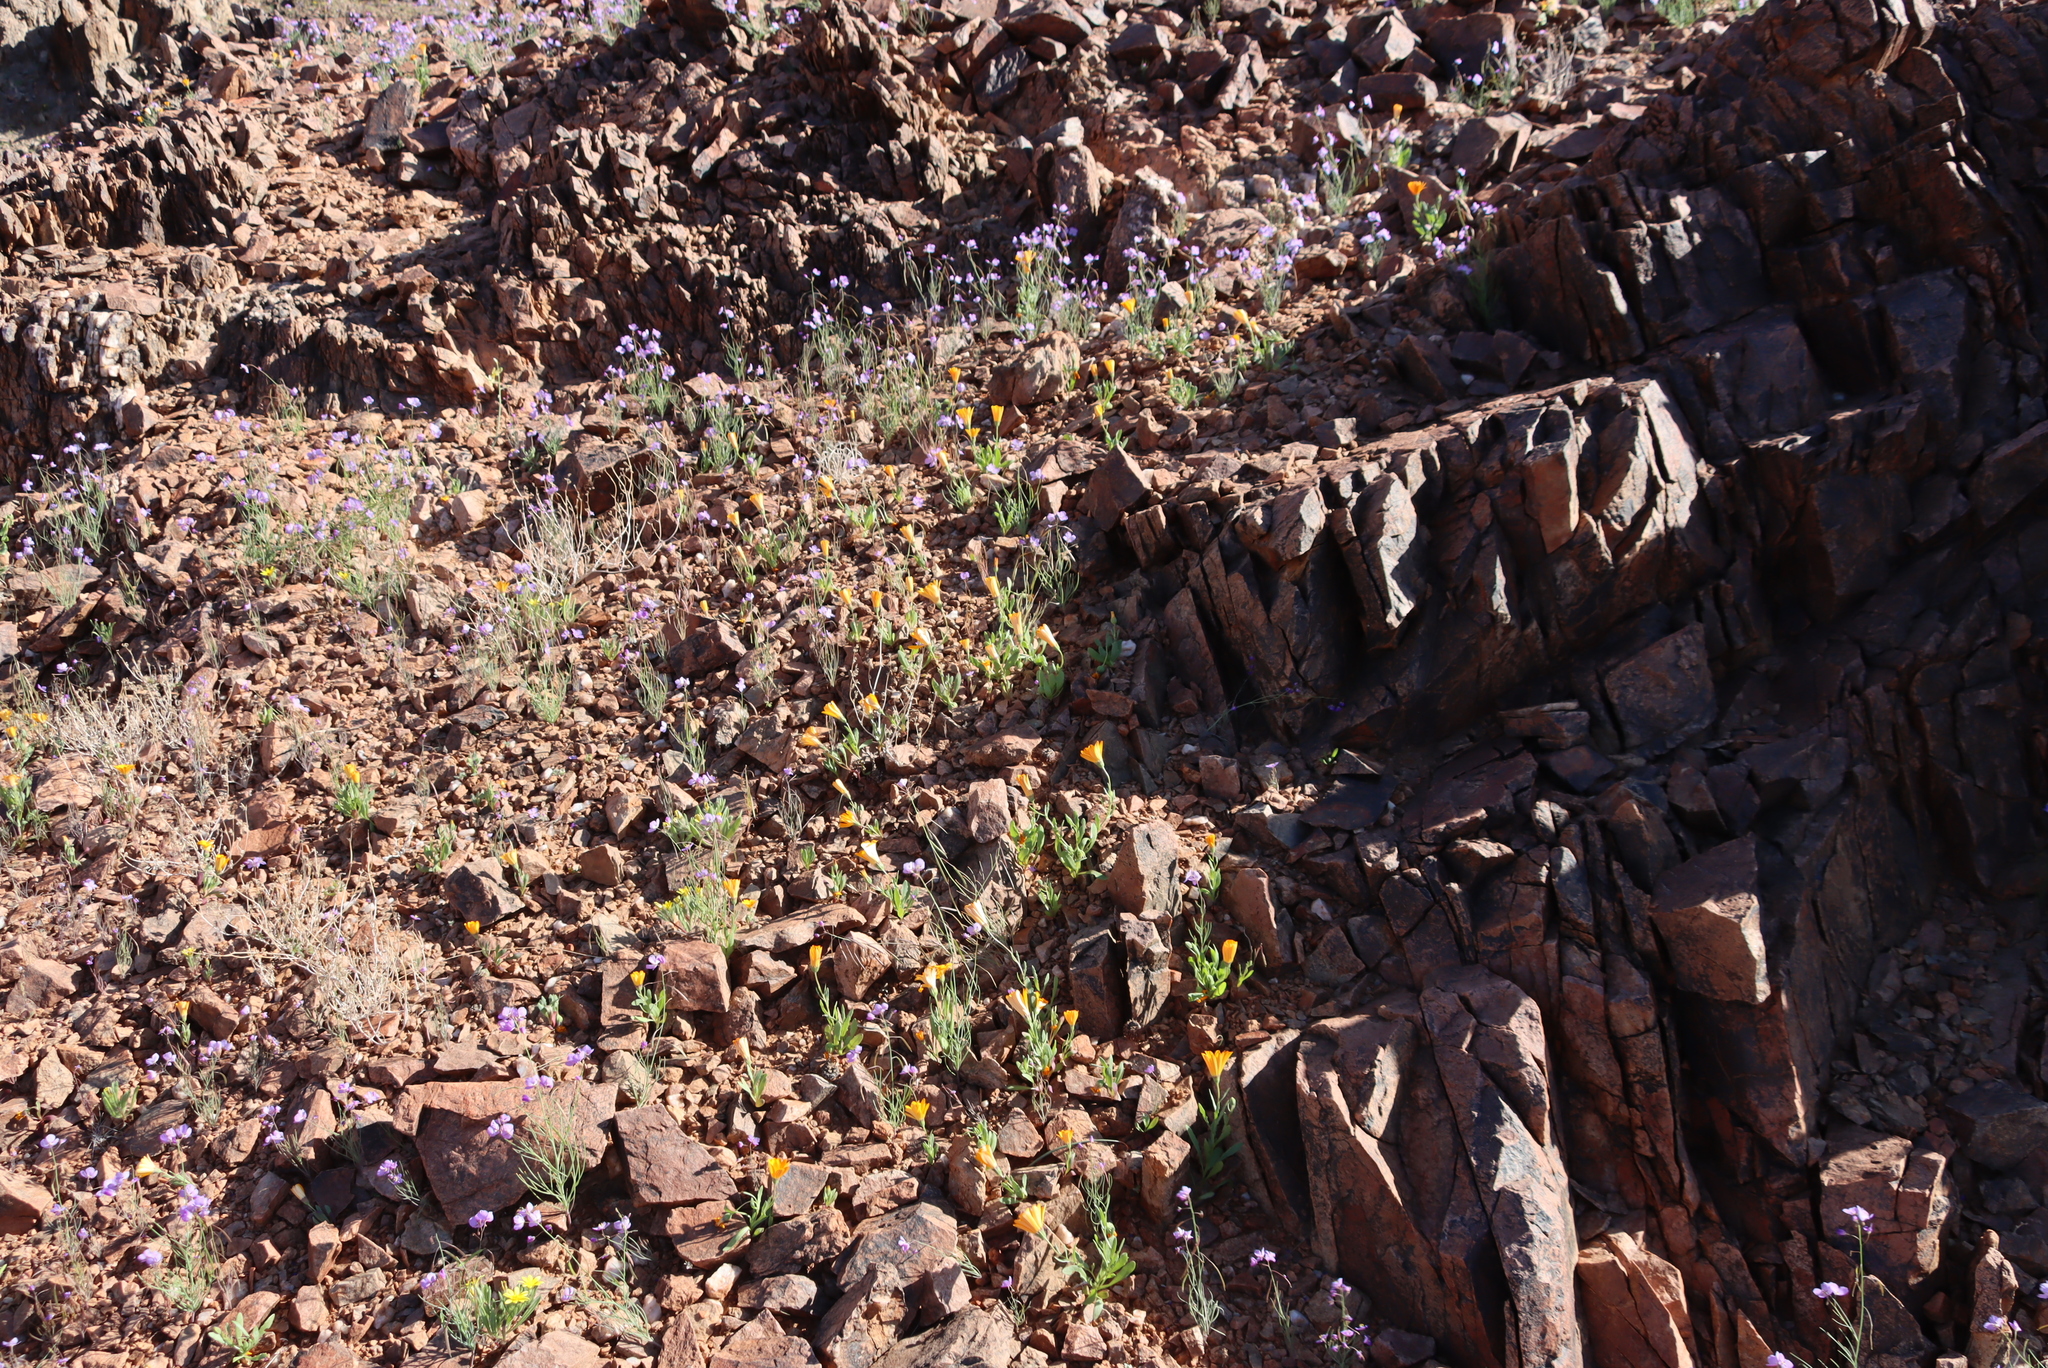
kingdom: Plantae
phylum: Tracheophyta
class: Magnoliopsida
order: Brassicales
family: Brassicaceae
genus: Heliophila
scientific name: Heliophila trifurca
